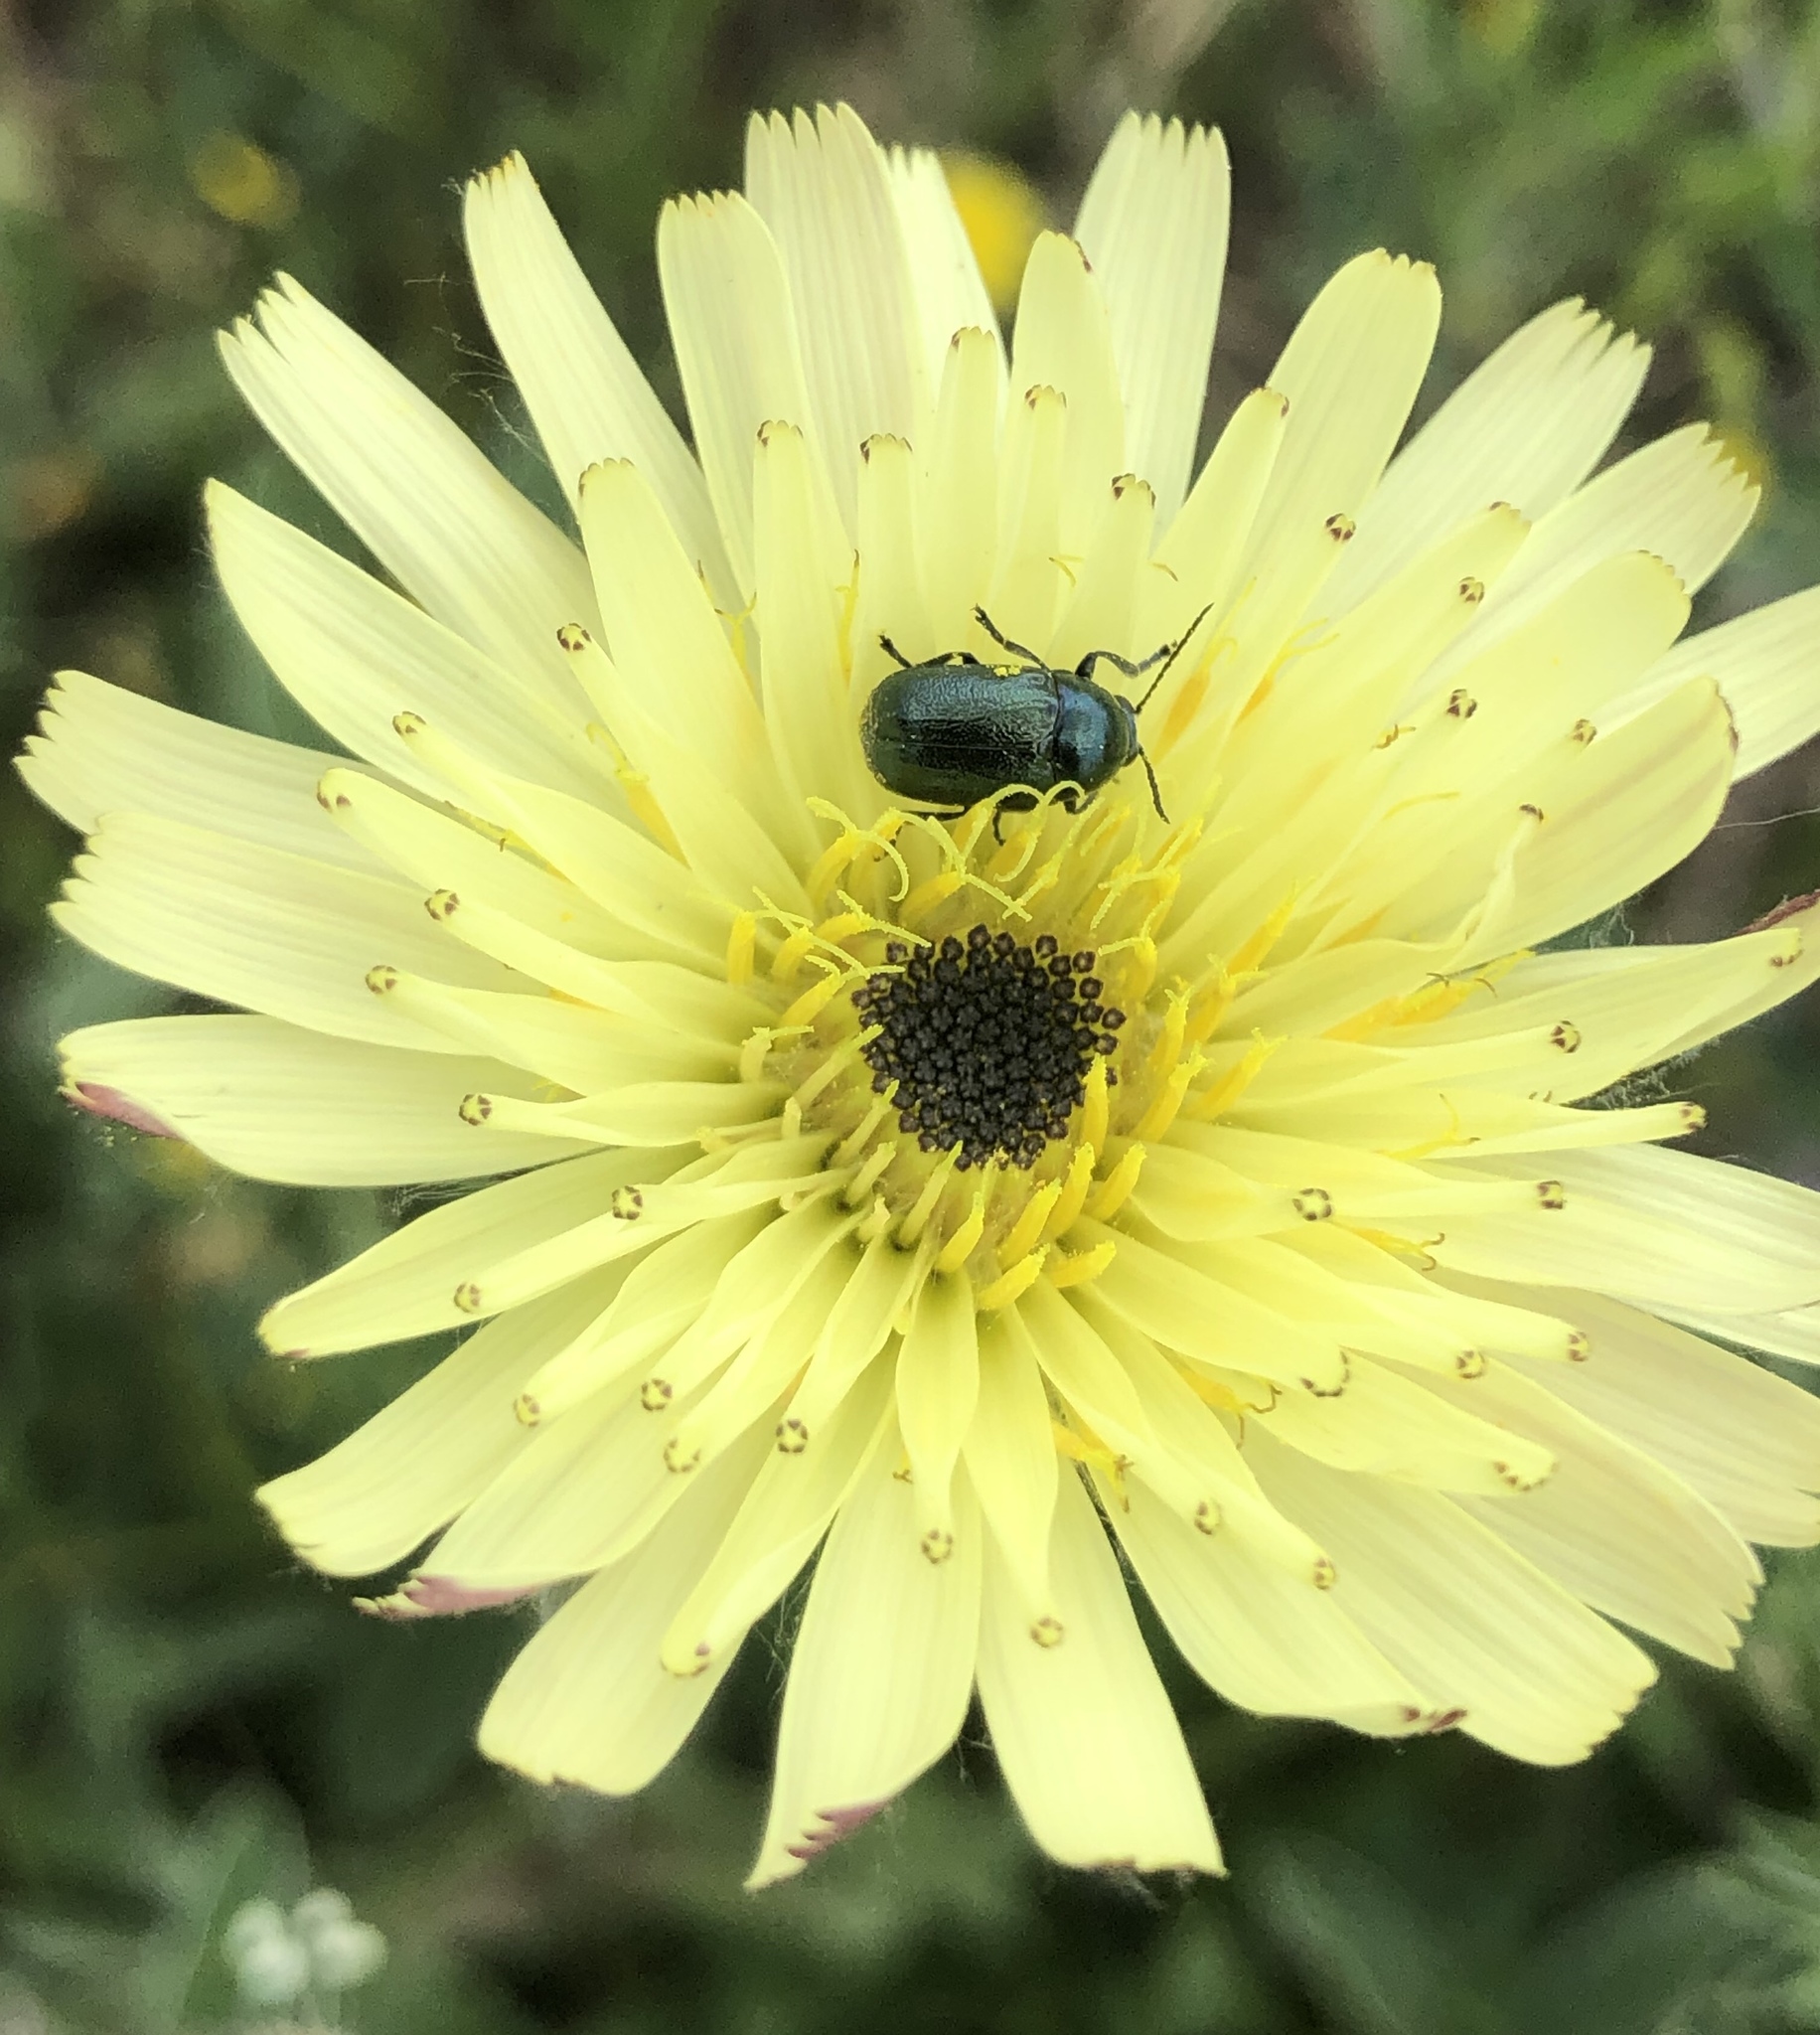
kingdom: Animalia
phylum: Arthropoda
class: Insecta
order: Coleoptera
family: Chrysomelidae
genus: Cryptocephalus
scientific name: Cryptocephalus violaceus
